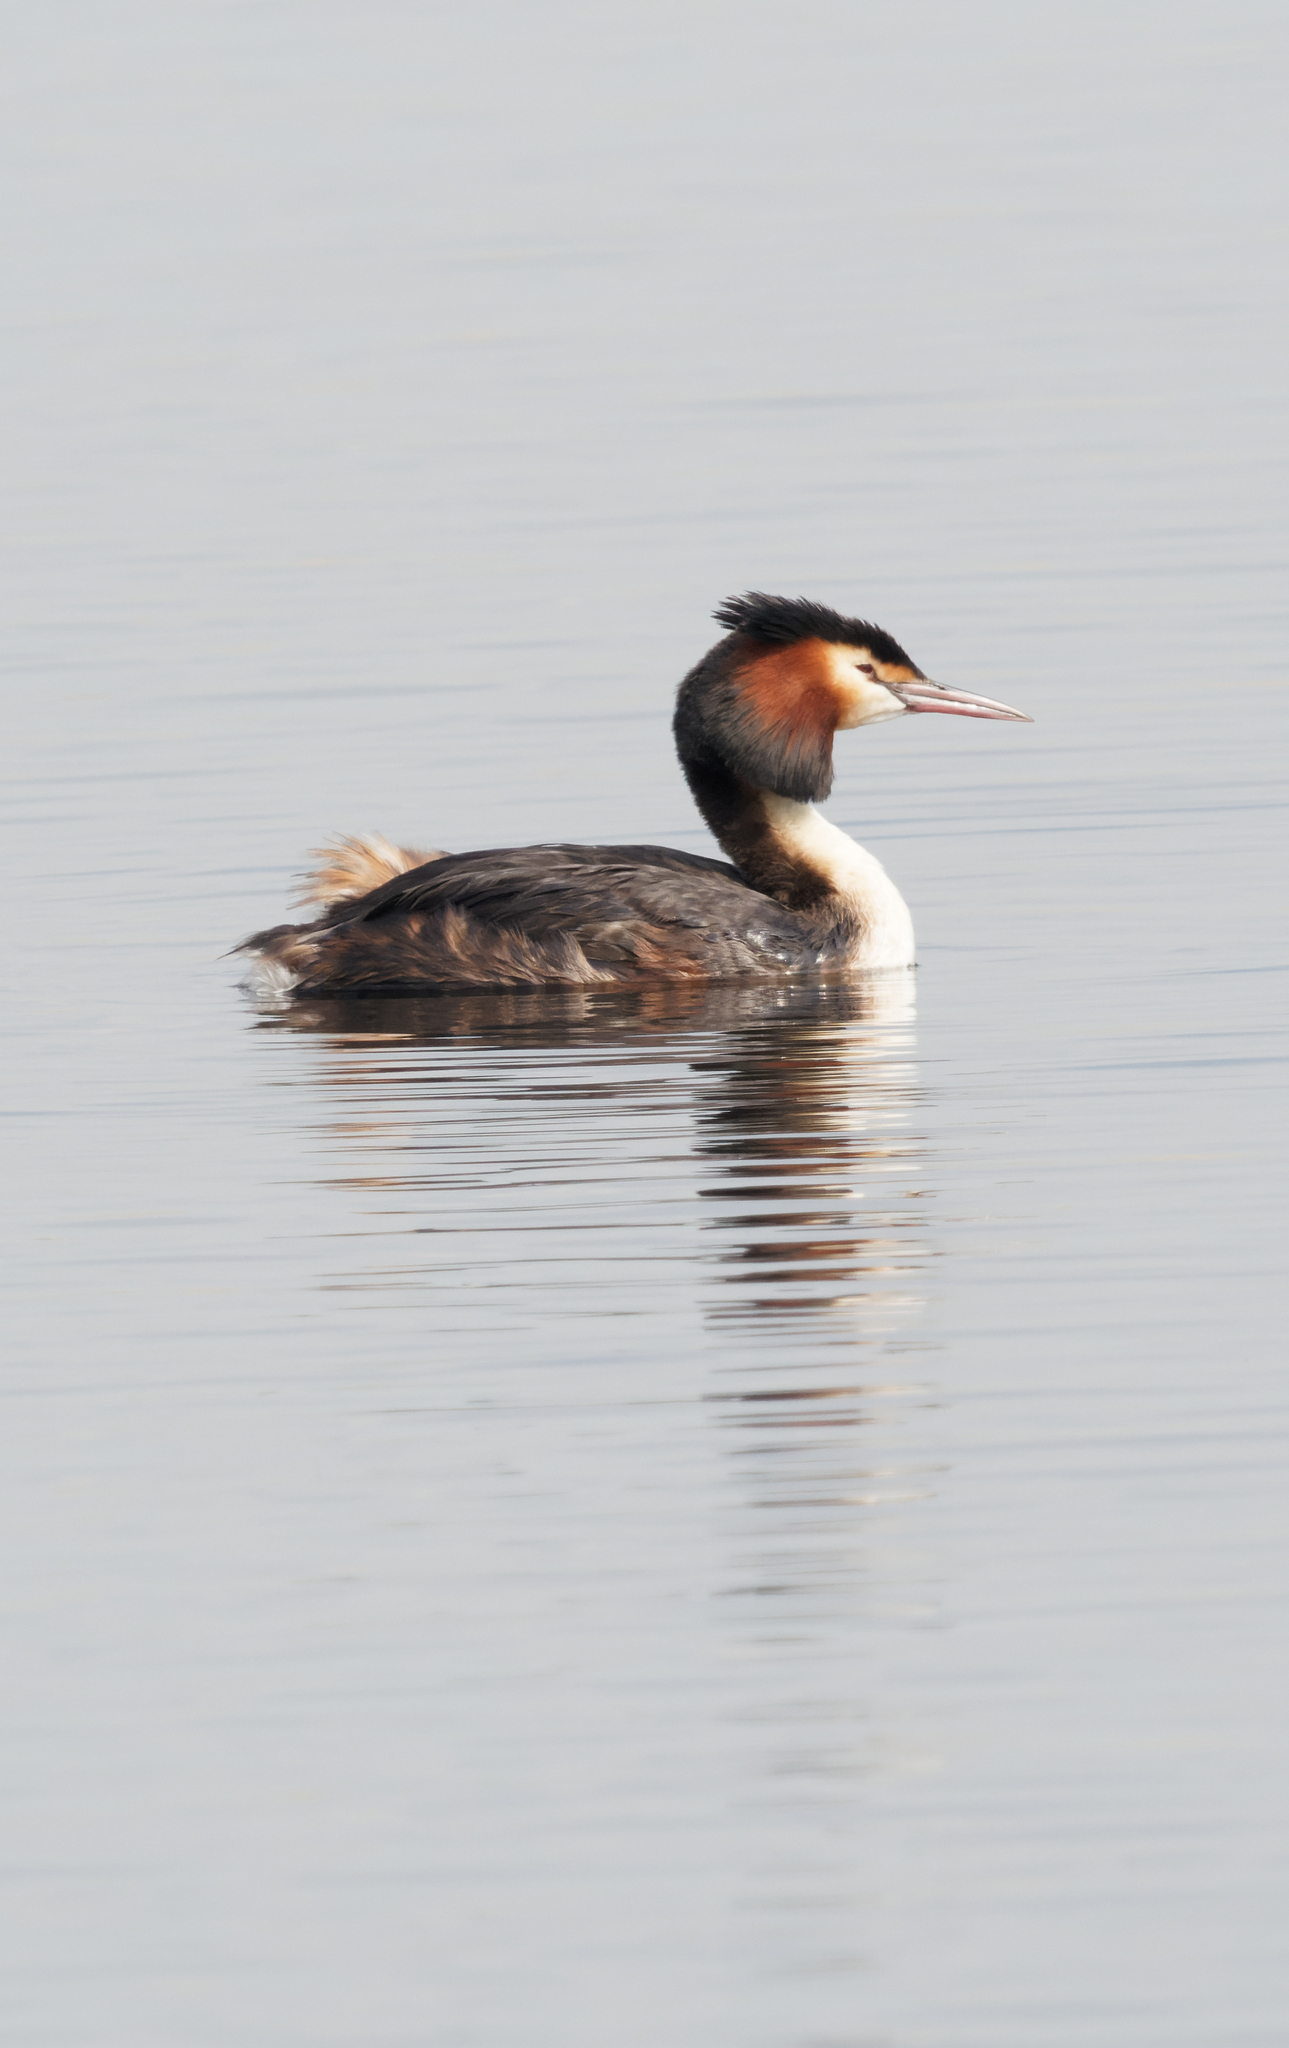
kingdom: Animalia
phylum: Chordata
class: Aves
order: Podicipediformes
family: Podicipedidae
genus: Podiceps
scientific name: Podiceps cristatus
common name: Great crested grebe
